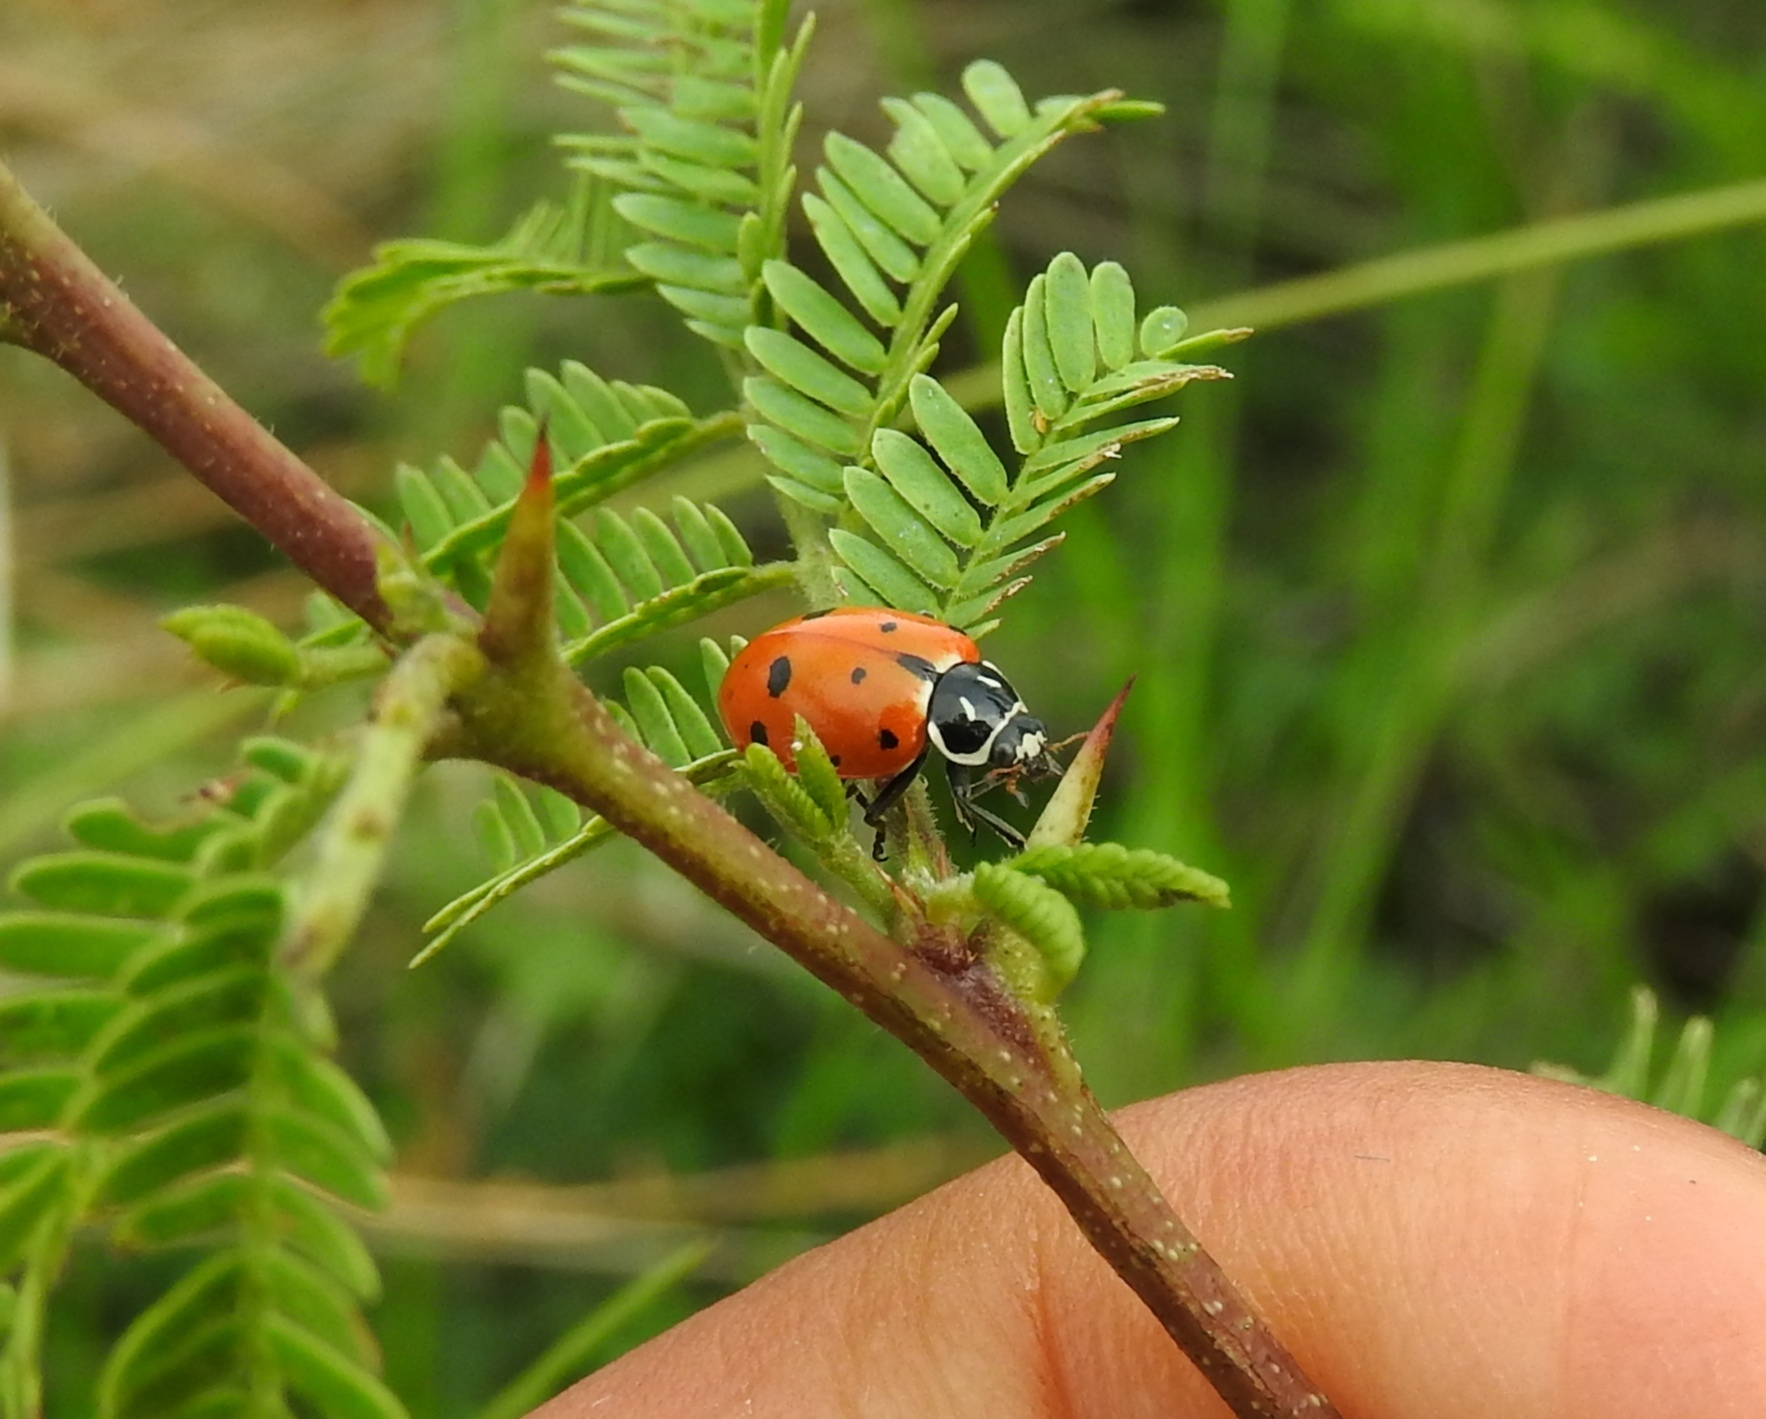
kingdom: Animalia
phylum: Arthropoda
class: Insecta
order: Coleoptera
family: Coccinellidae
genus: Hippodamia
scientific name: Hippodamia convergens
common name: Convergent lady beetle
